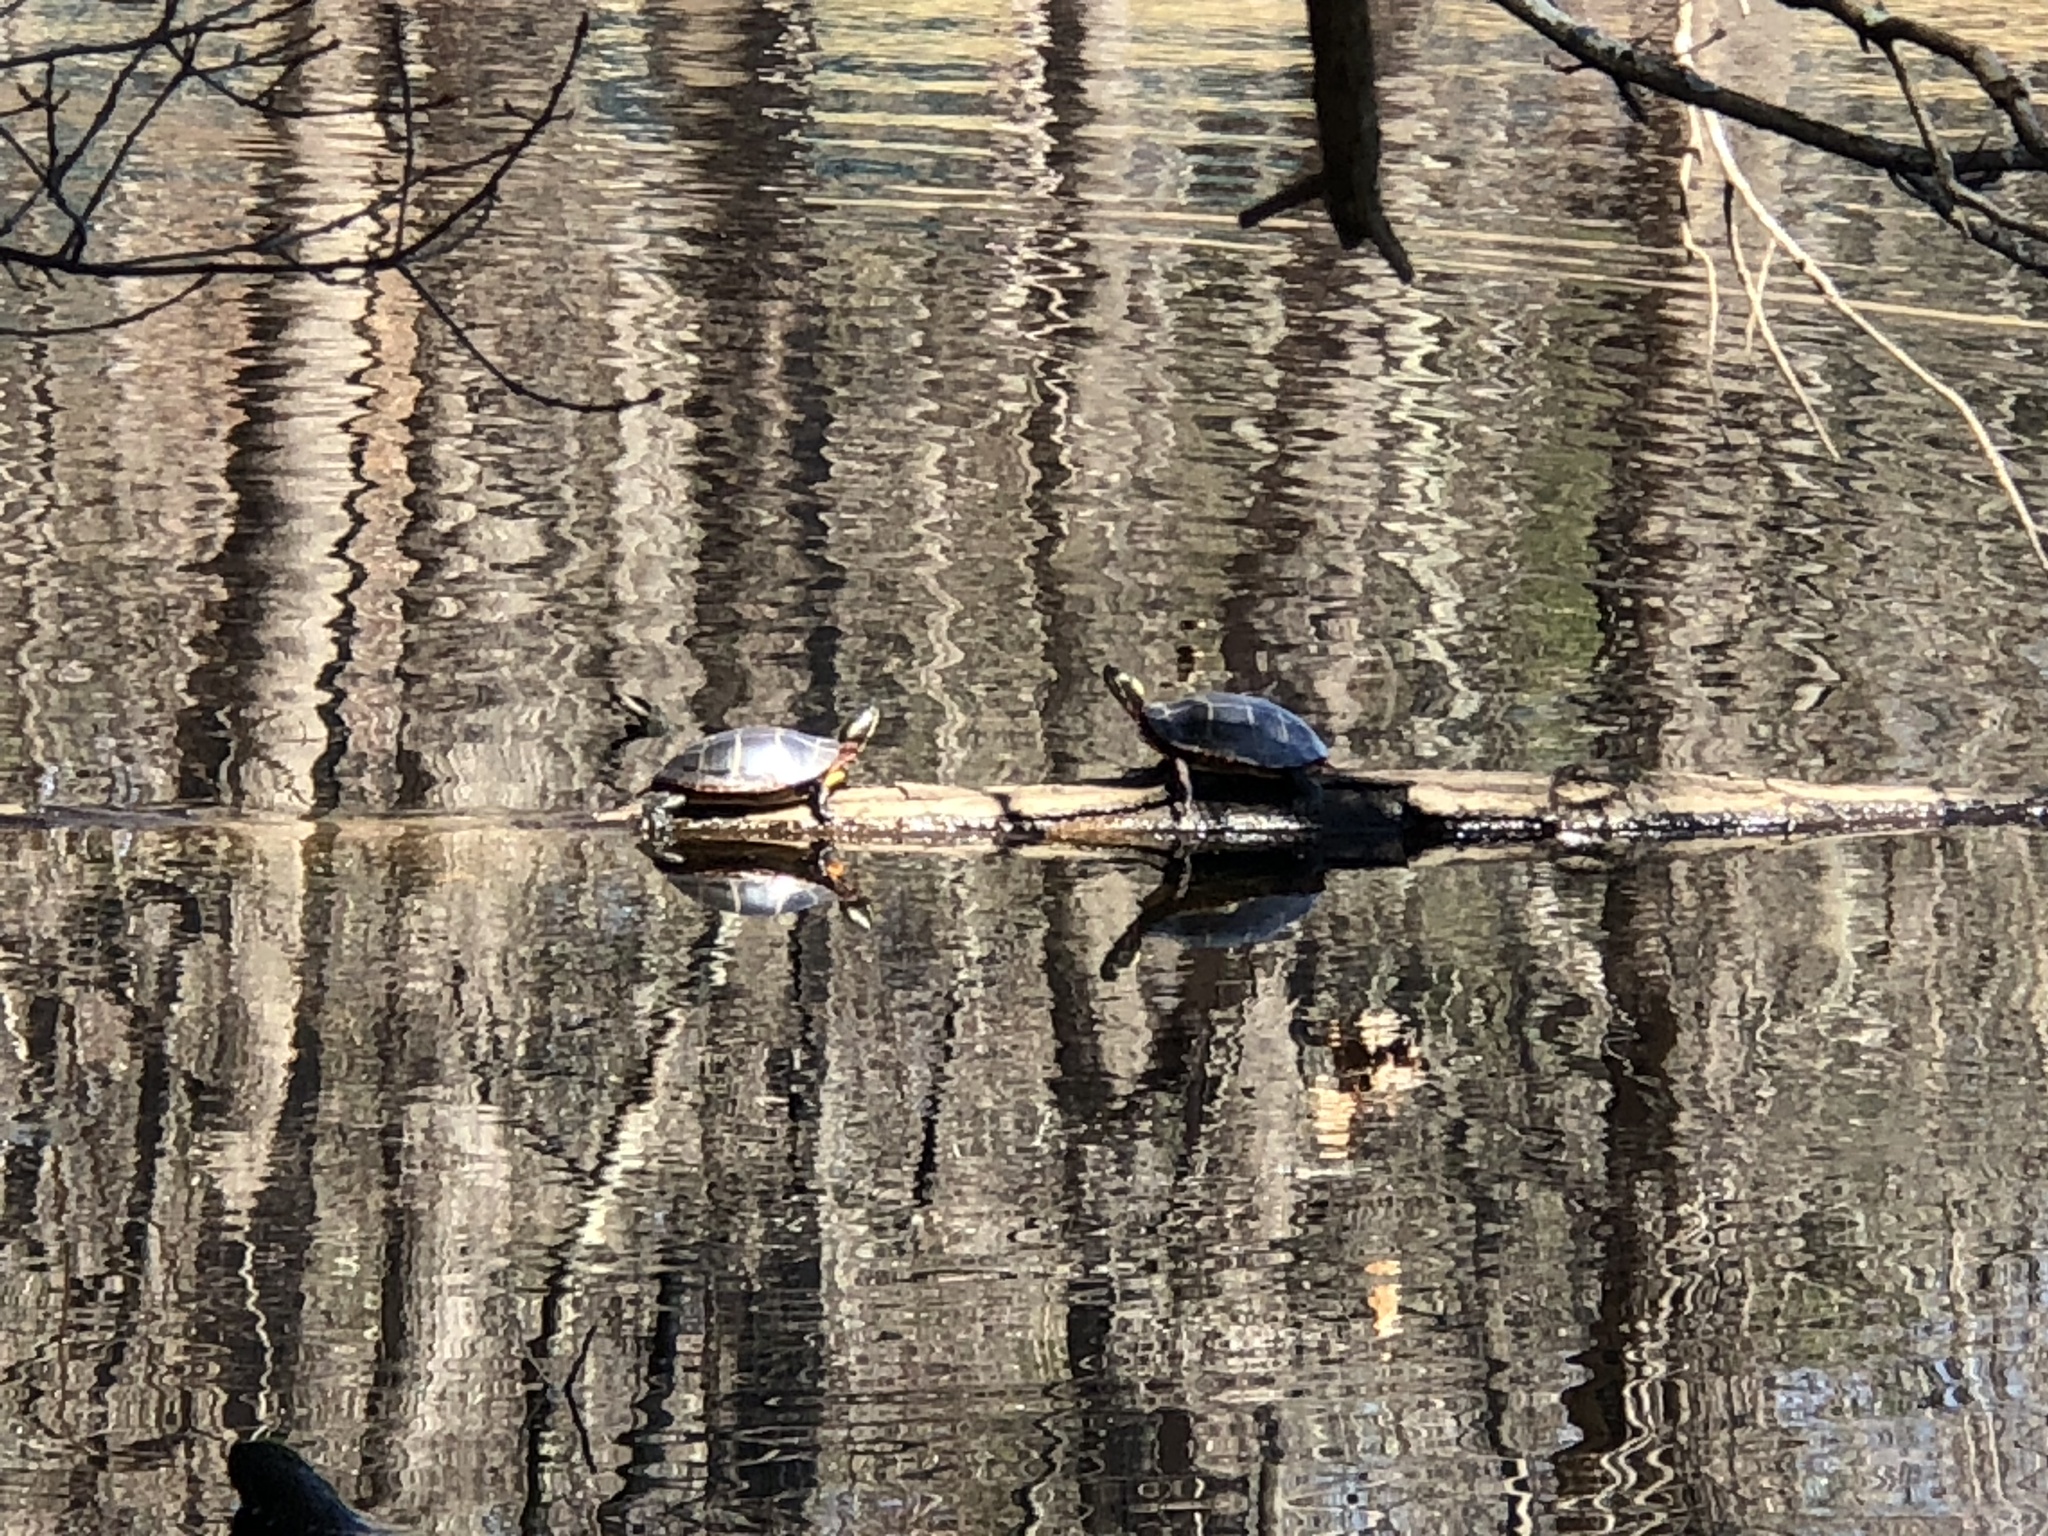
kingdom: Animalia
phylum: Chordata
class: Testudines
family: Emydidae
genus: Chrysemys
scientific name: Chrysemys picta
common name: Painted turtle
